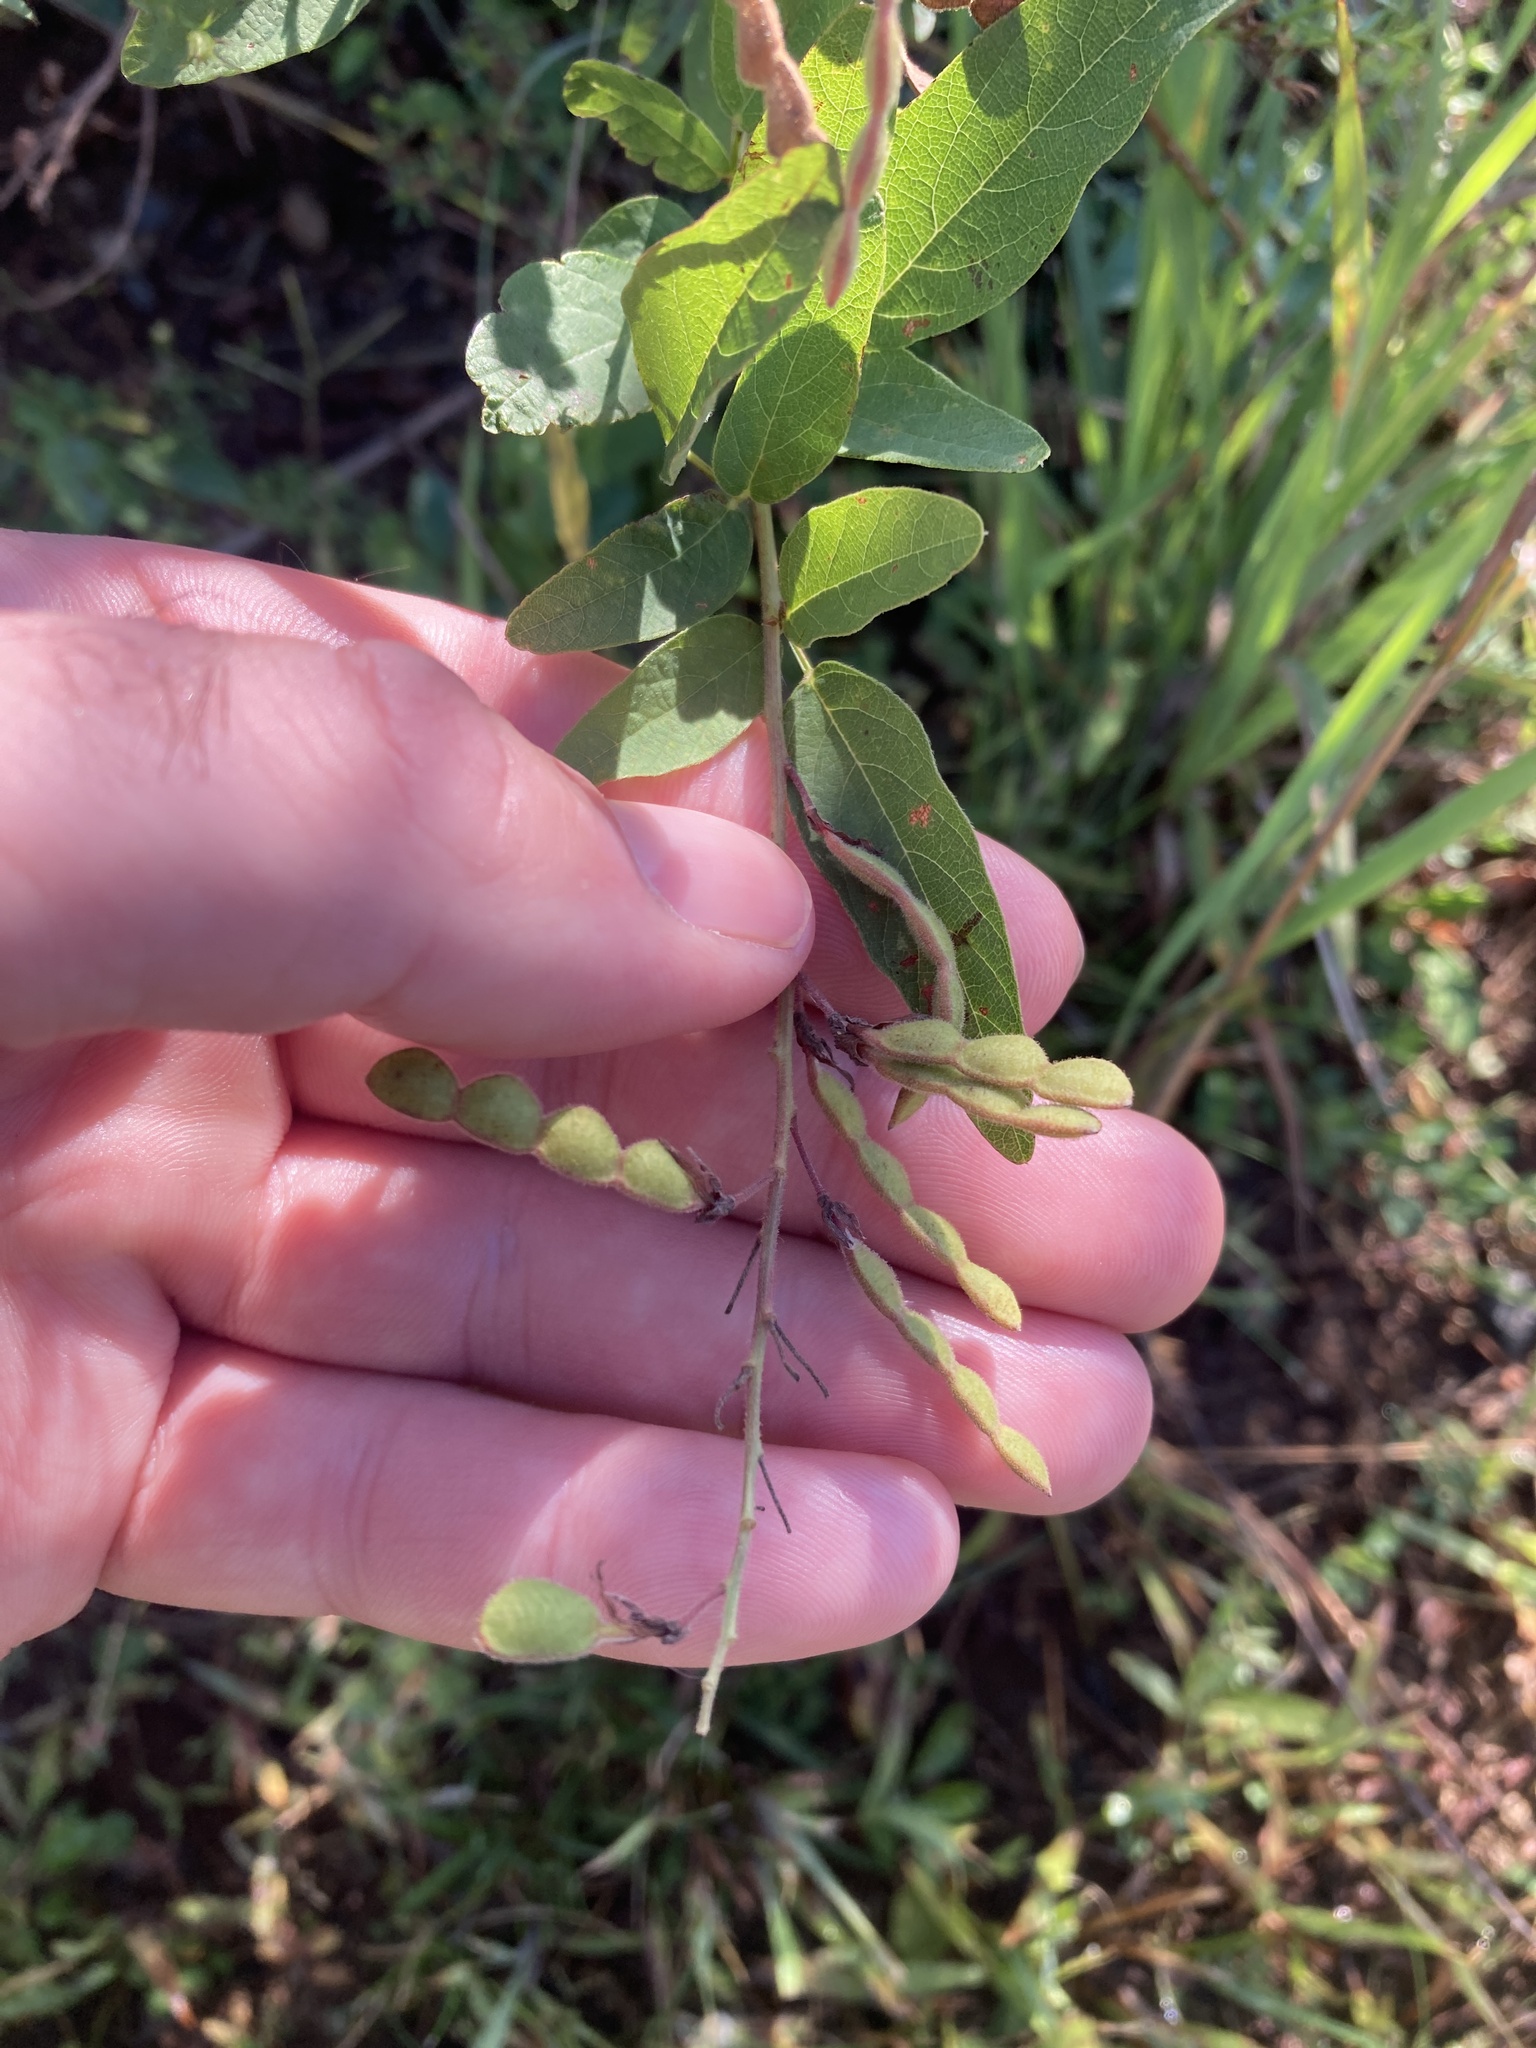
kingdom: Plantae
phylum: Tracheophyta
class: Magnoliopsida
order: Fabales
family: Fabaceae
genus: Desmodium
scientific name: Desmodium canadense
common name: Canada tick-trefoil
